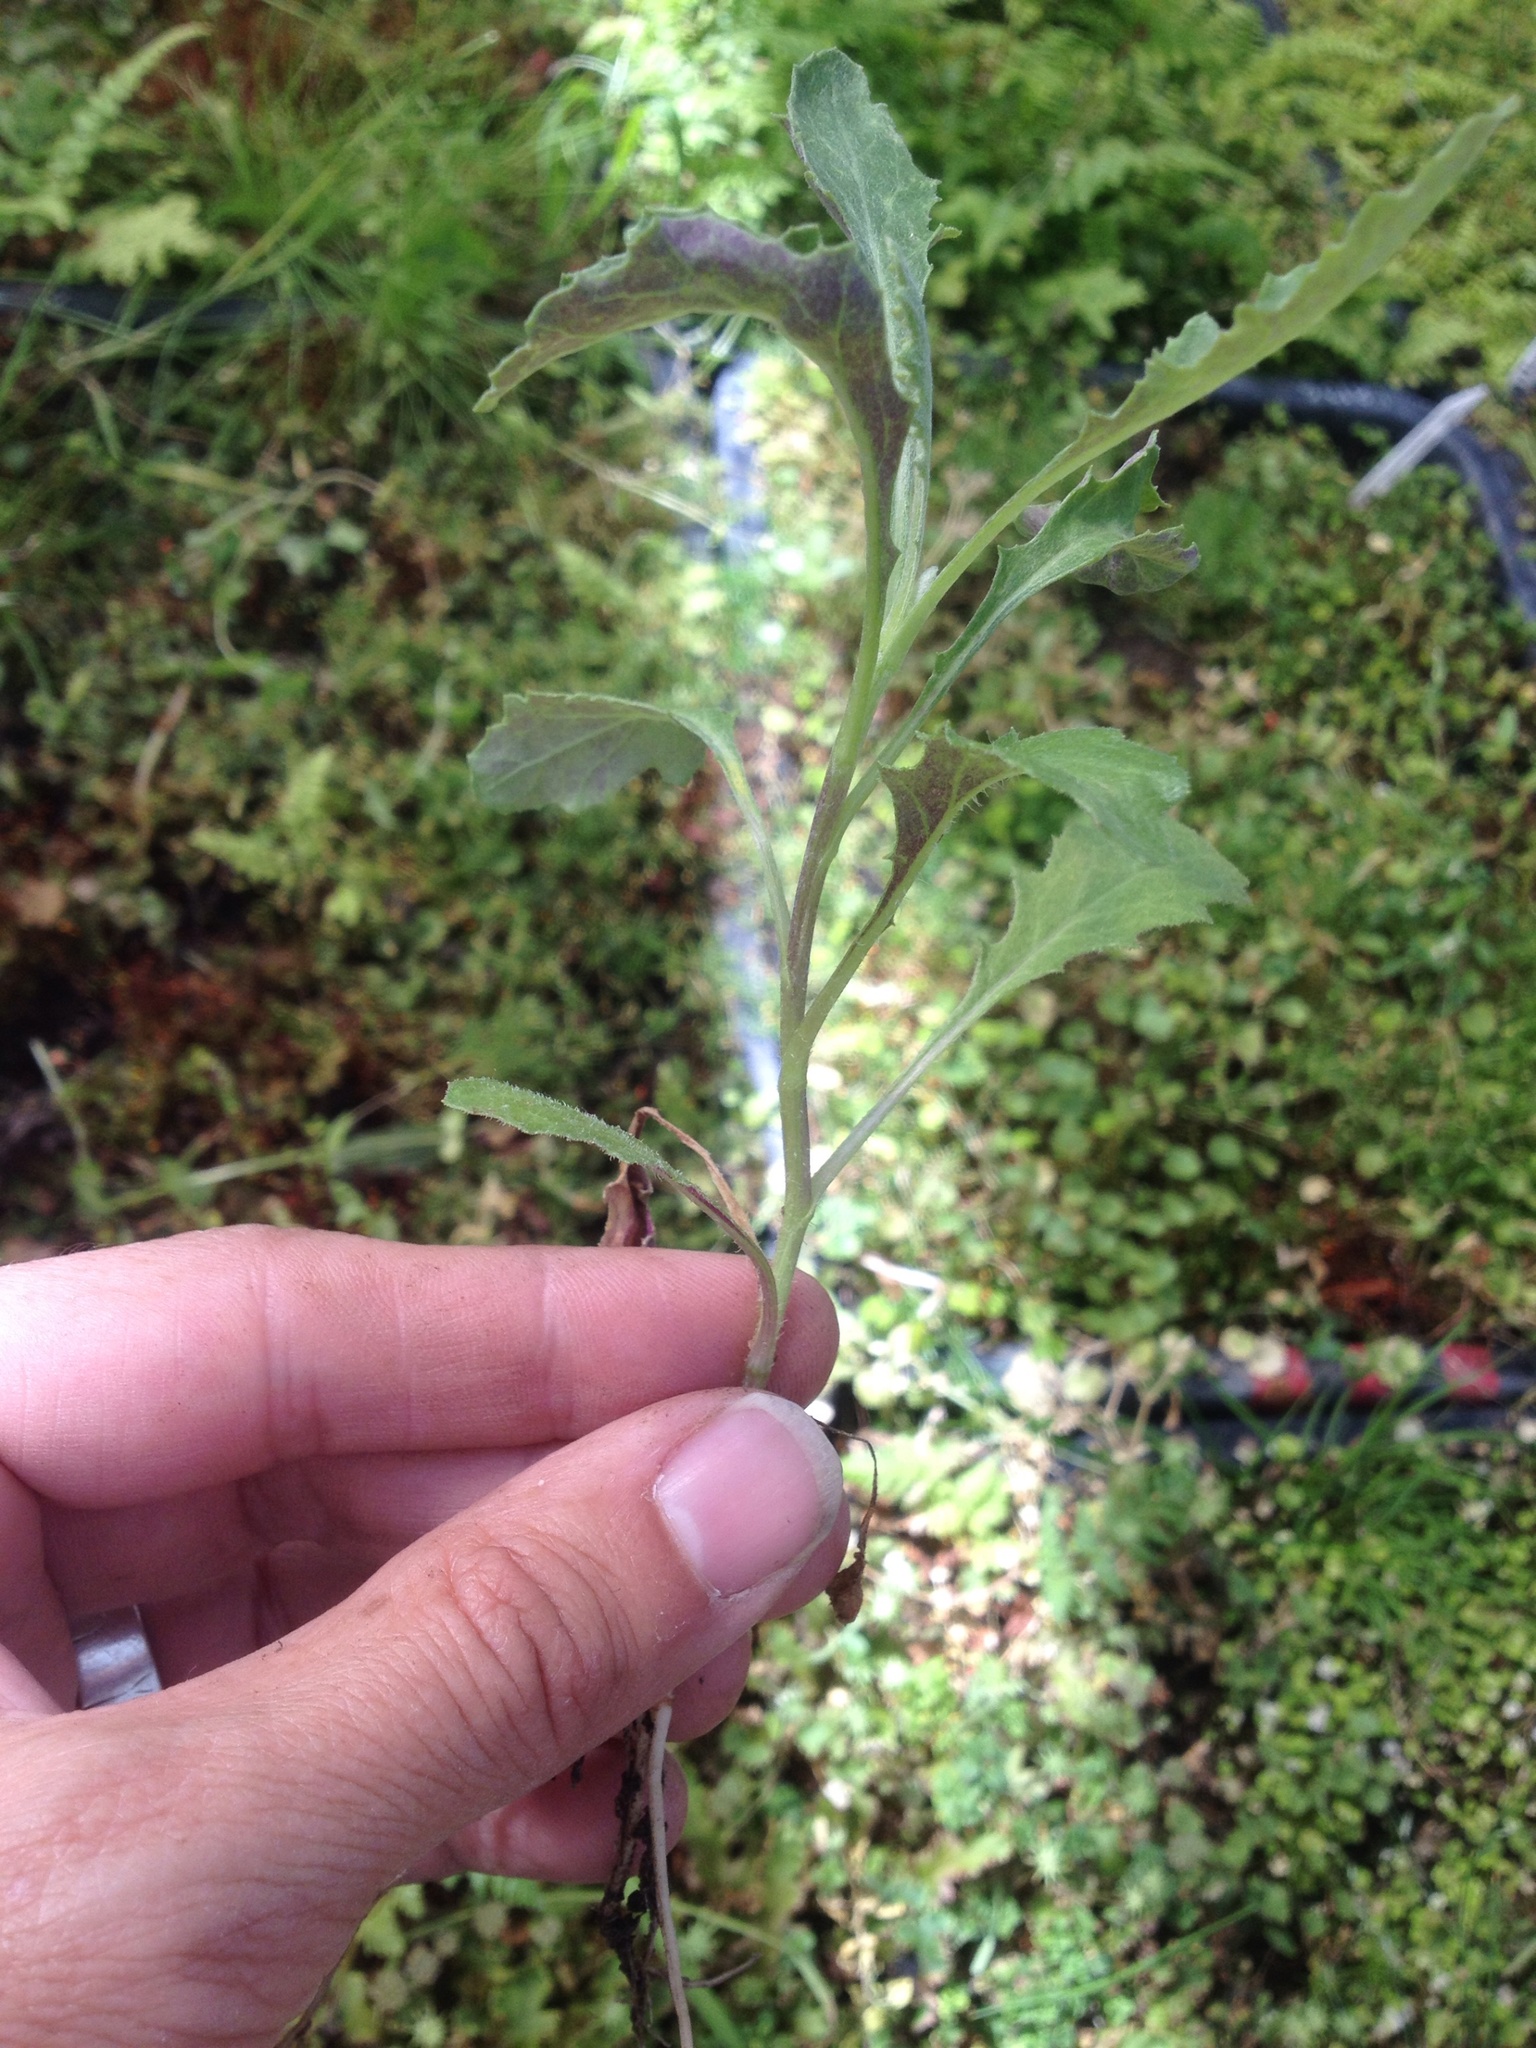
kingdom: Plantae
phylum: Tracheophyta
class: Magnoliopsida
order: Asterales
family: Asteraceae
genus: Senecio
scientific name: Senecio glomeratus
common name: Cutleaf burnweed
